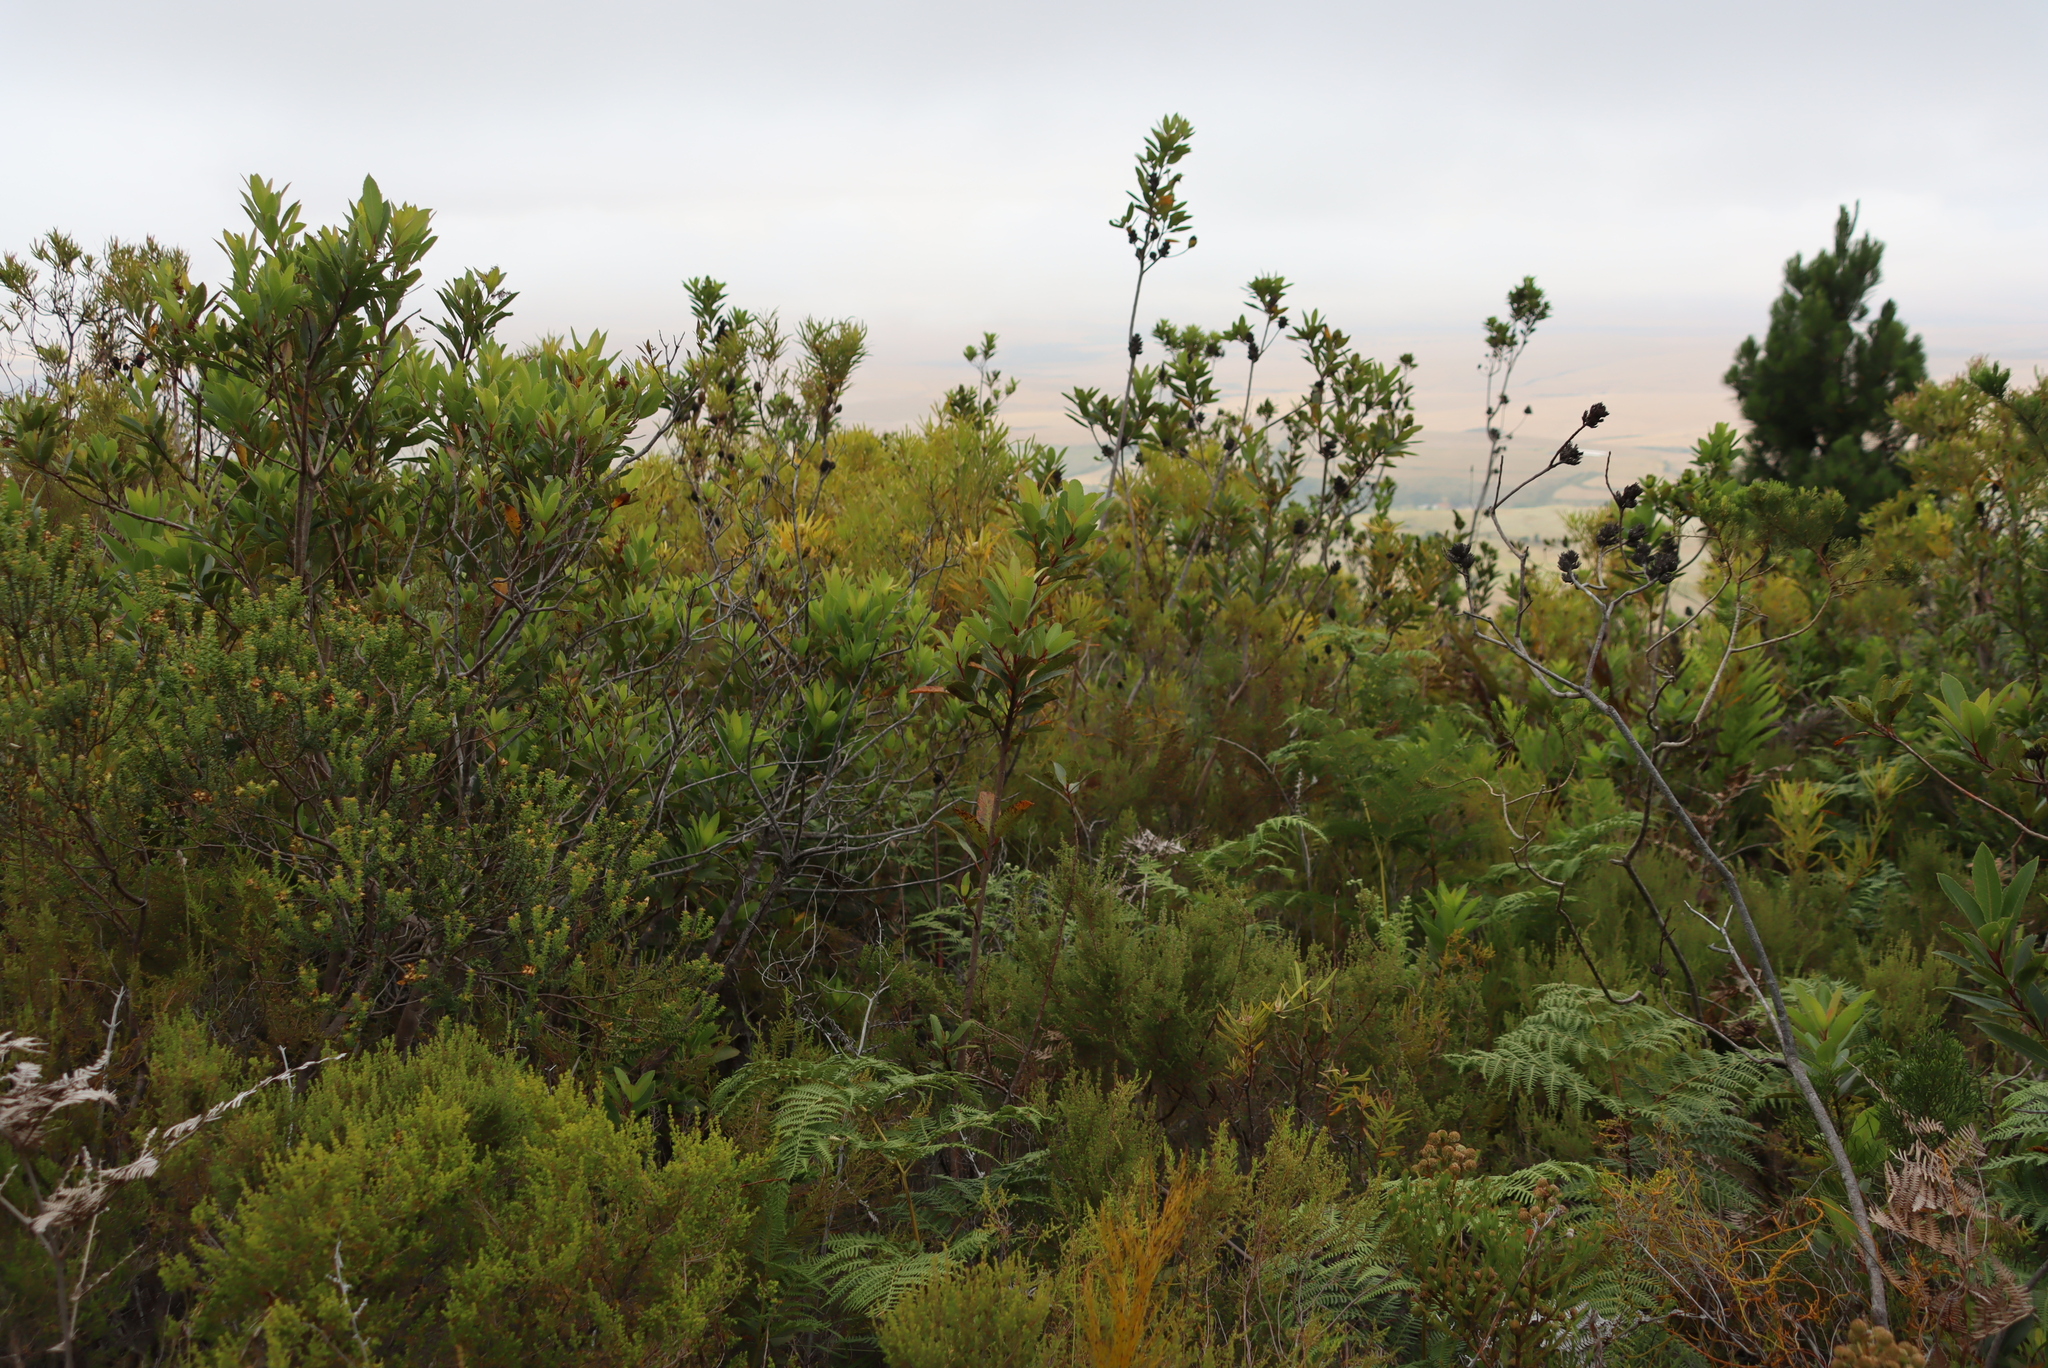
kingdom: Plantae
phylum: Tracheophyta
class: Magnoliopsida
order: Sapindales
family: Anacardiaceae
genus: Laurophyllus
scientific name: Laurophyllus capensis
